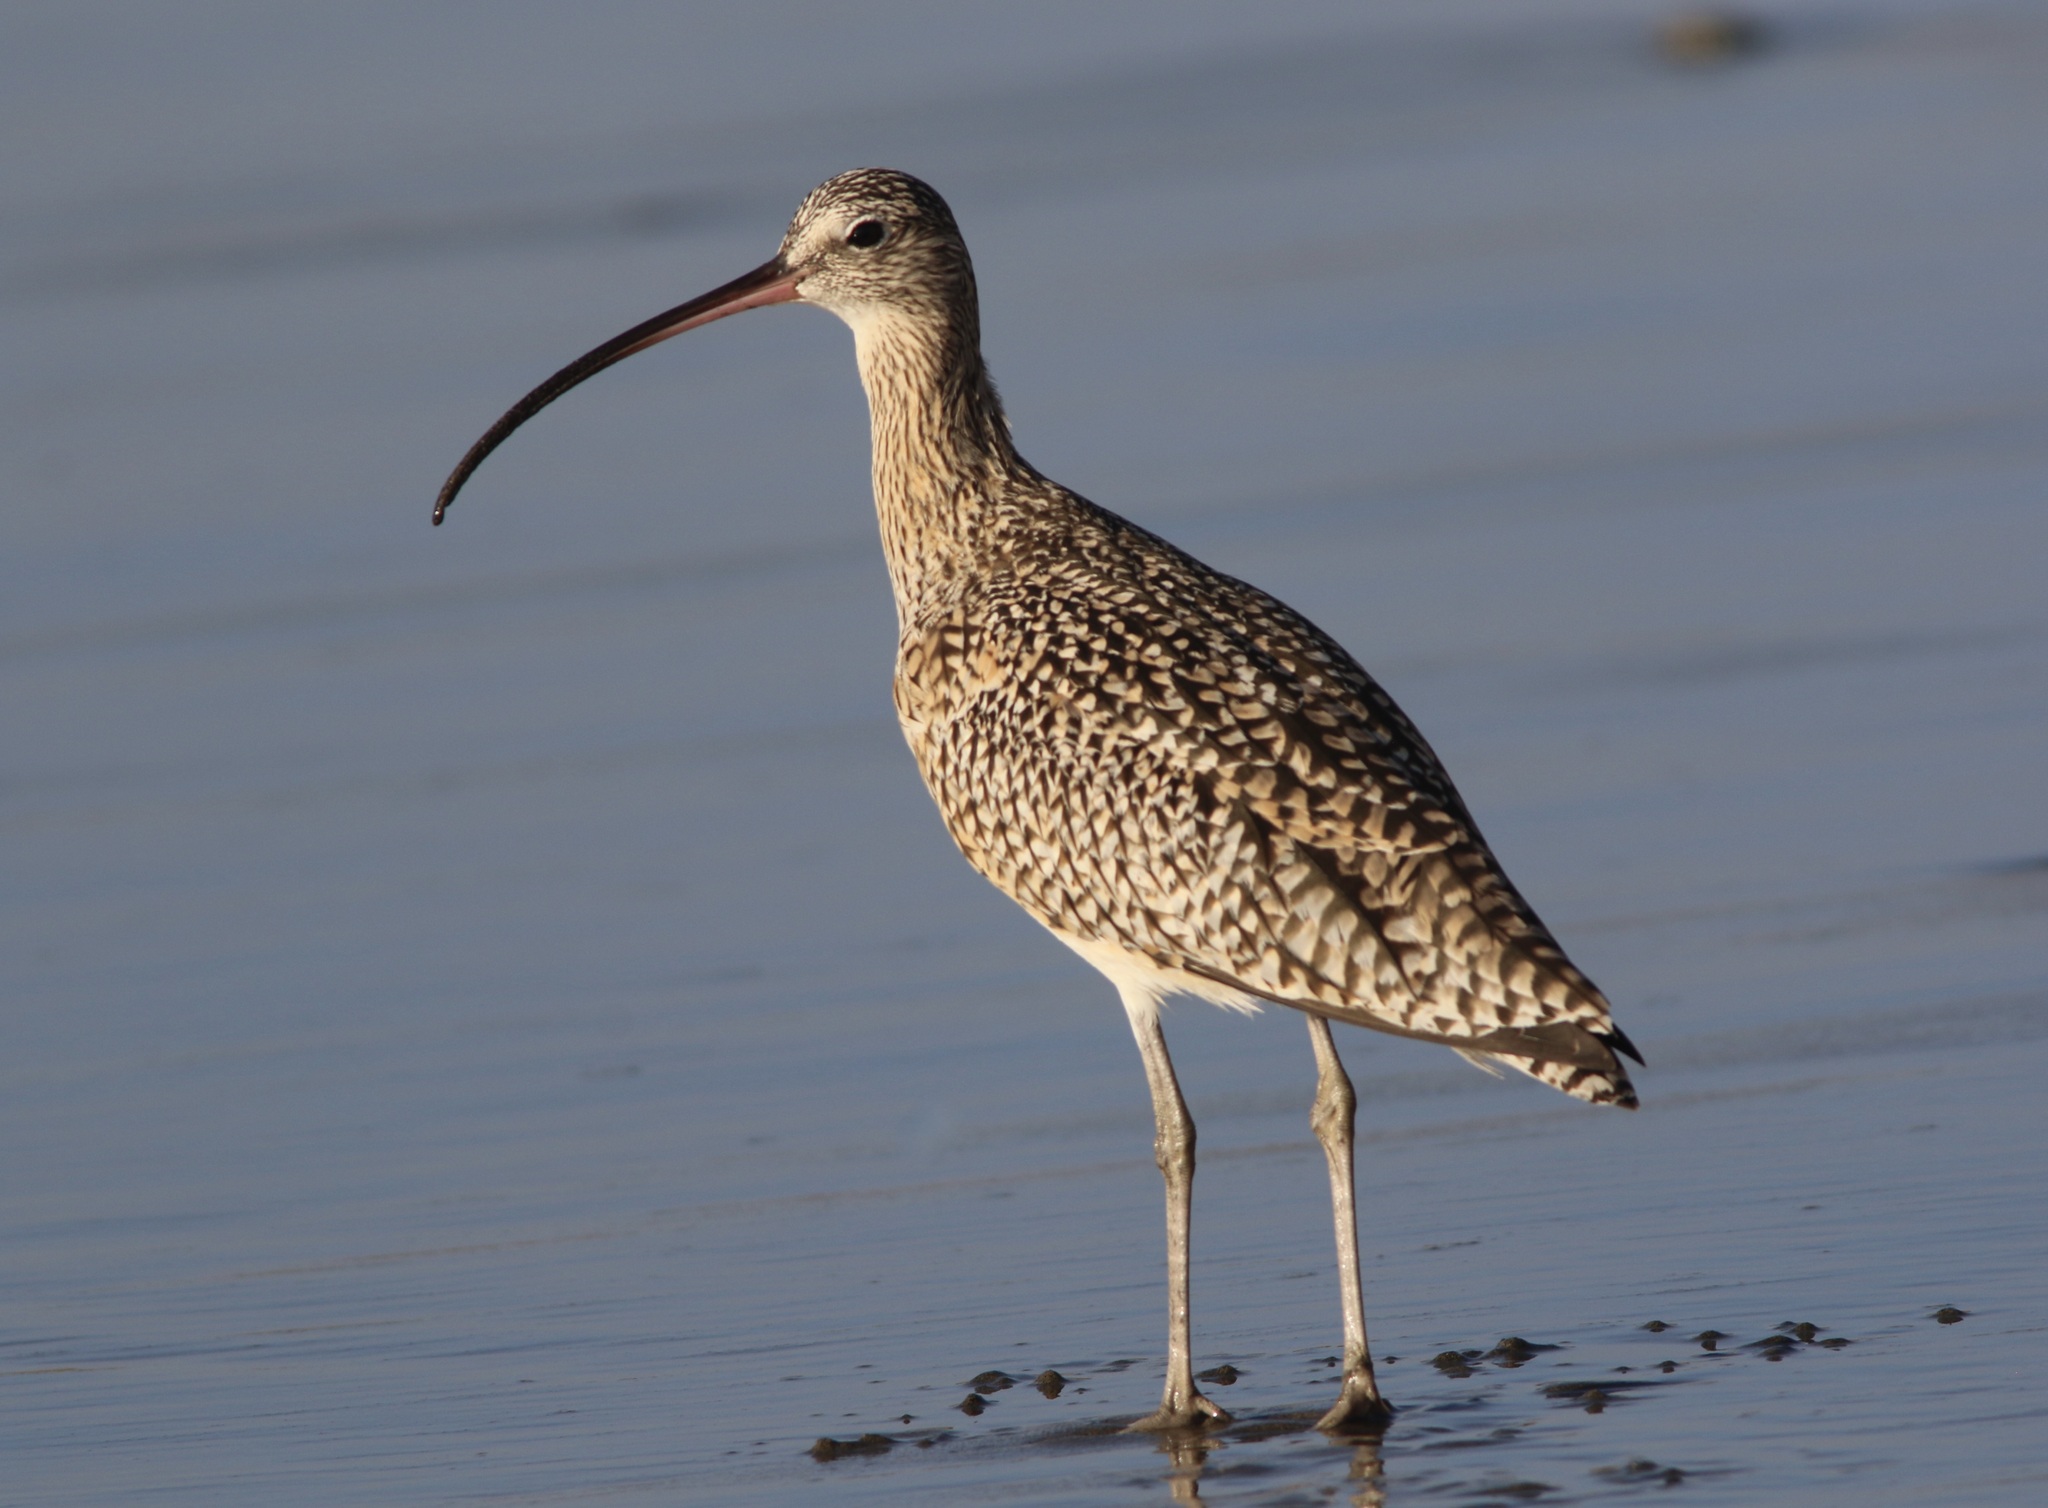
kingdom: Animalia
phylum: Chordata
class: Aves
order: Charadriiformes
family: Scolopacidae
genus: Numenius
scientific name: Numenius americanus
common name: Long-billed curlew
